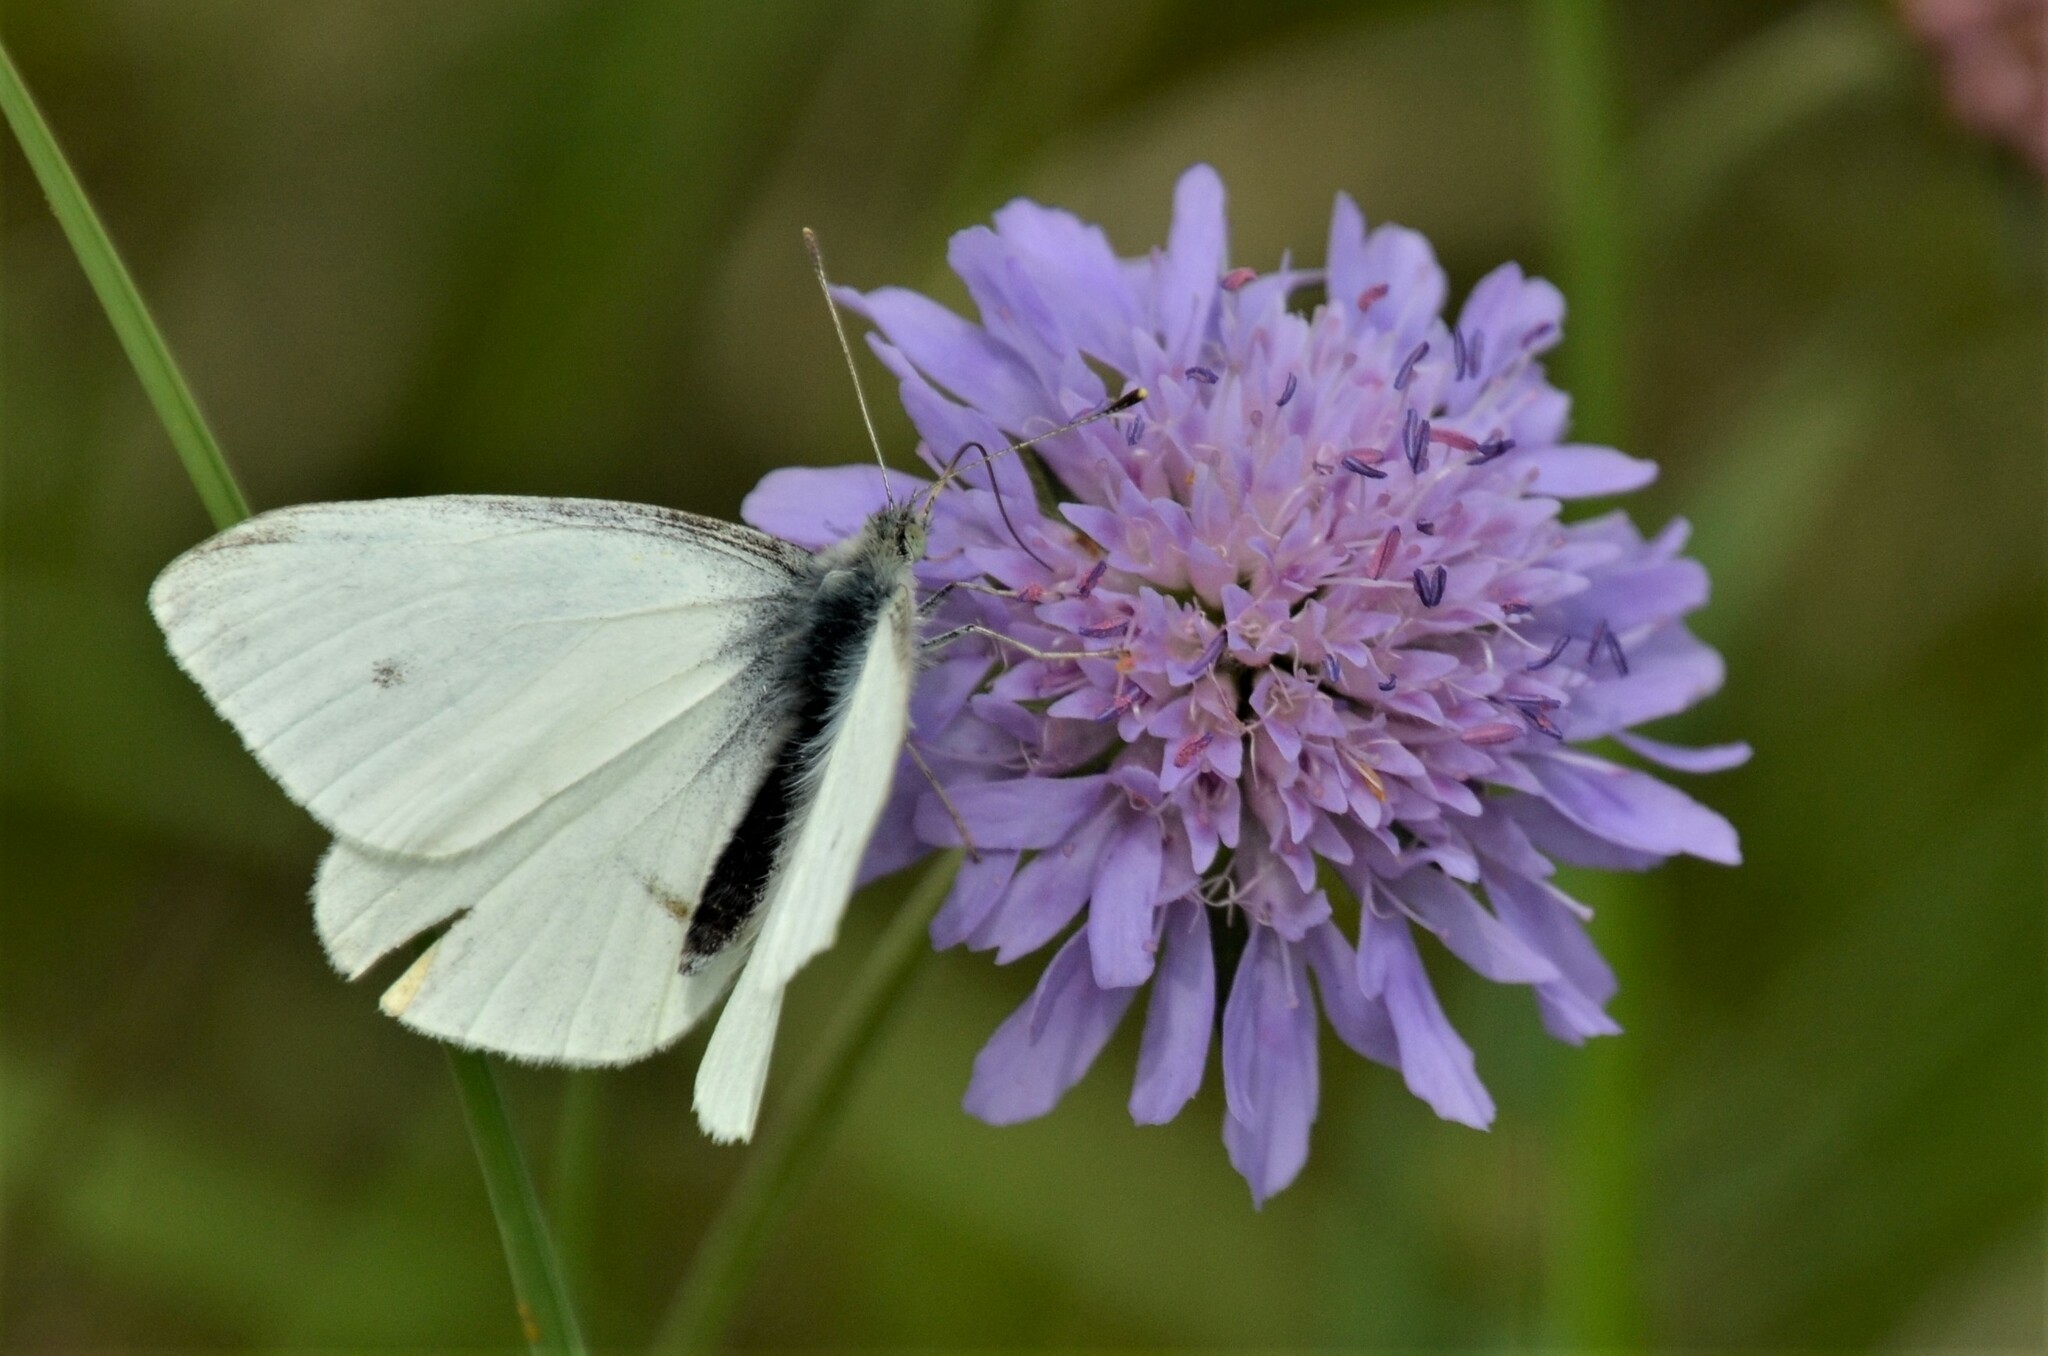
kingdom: Animalia
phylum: Arthropoda
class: Insecta
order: Lepidoptera
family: Pieridae
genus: Pieris
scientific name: Pieris rapae
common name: Small white
